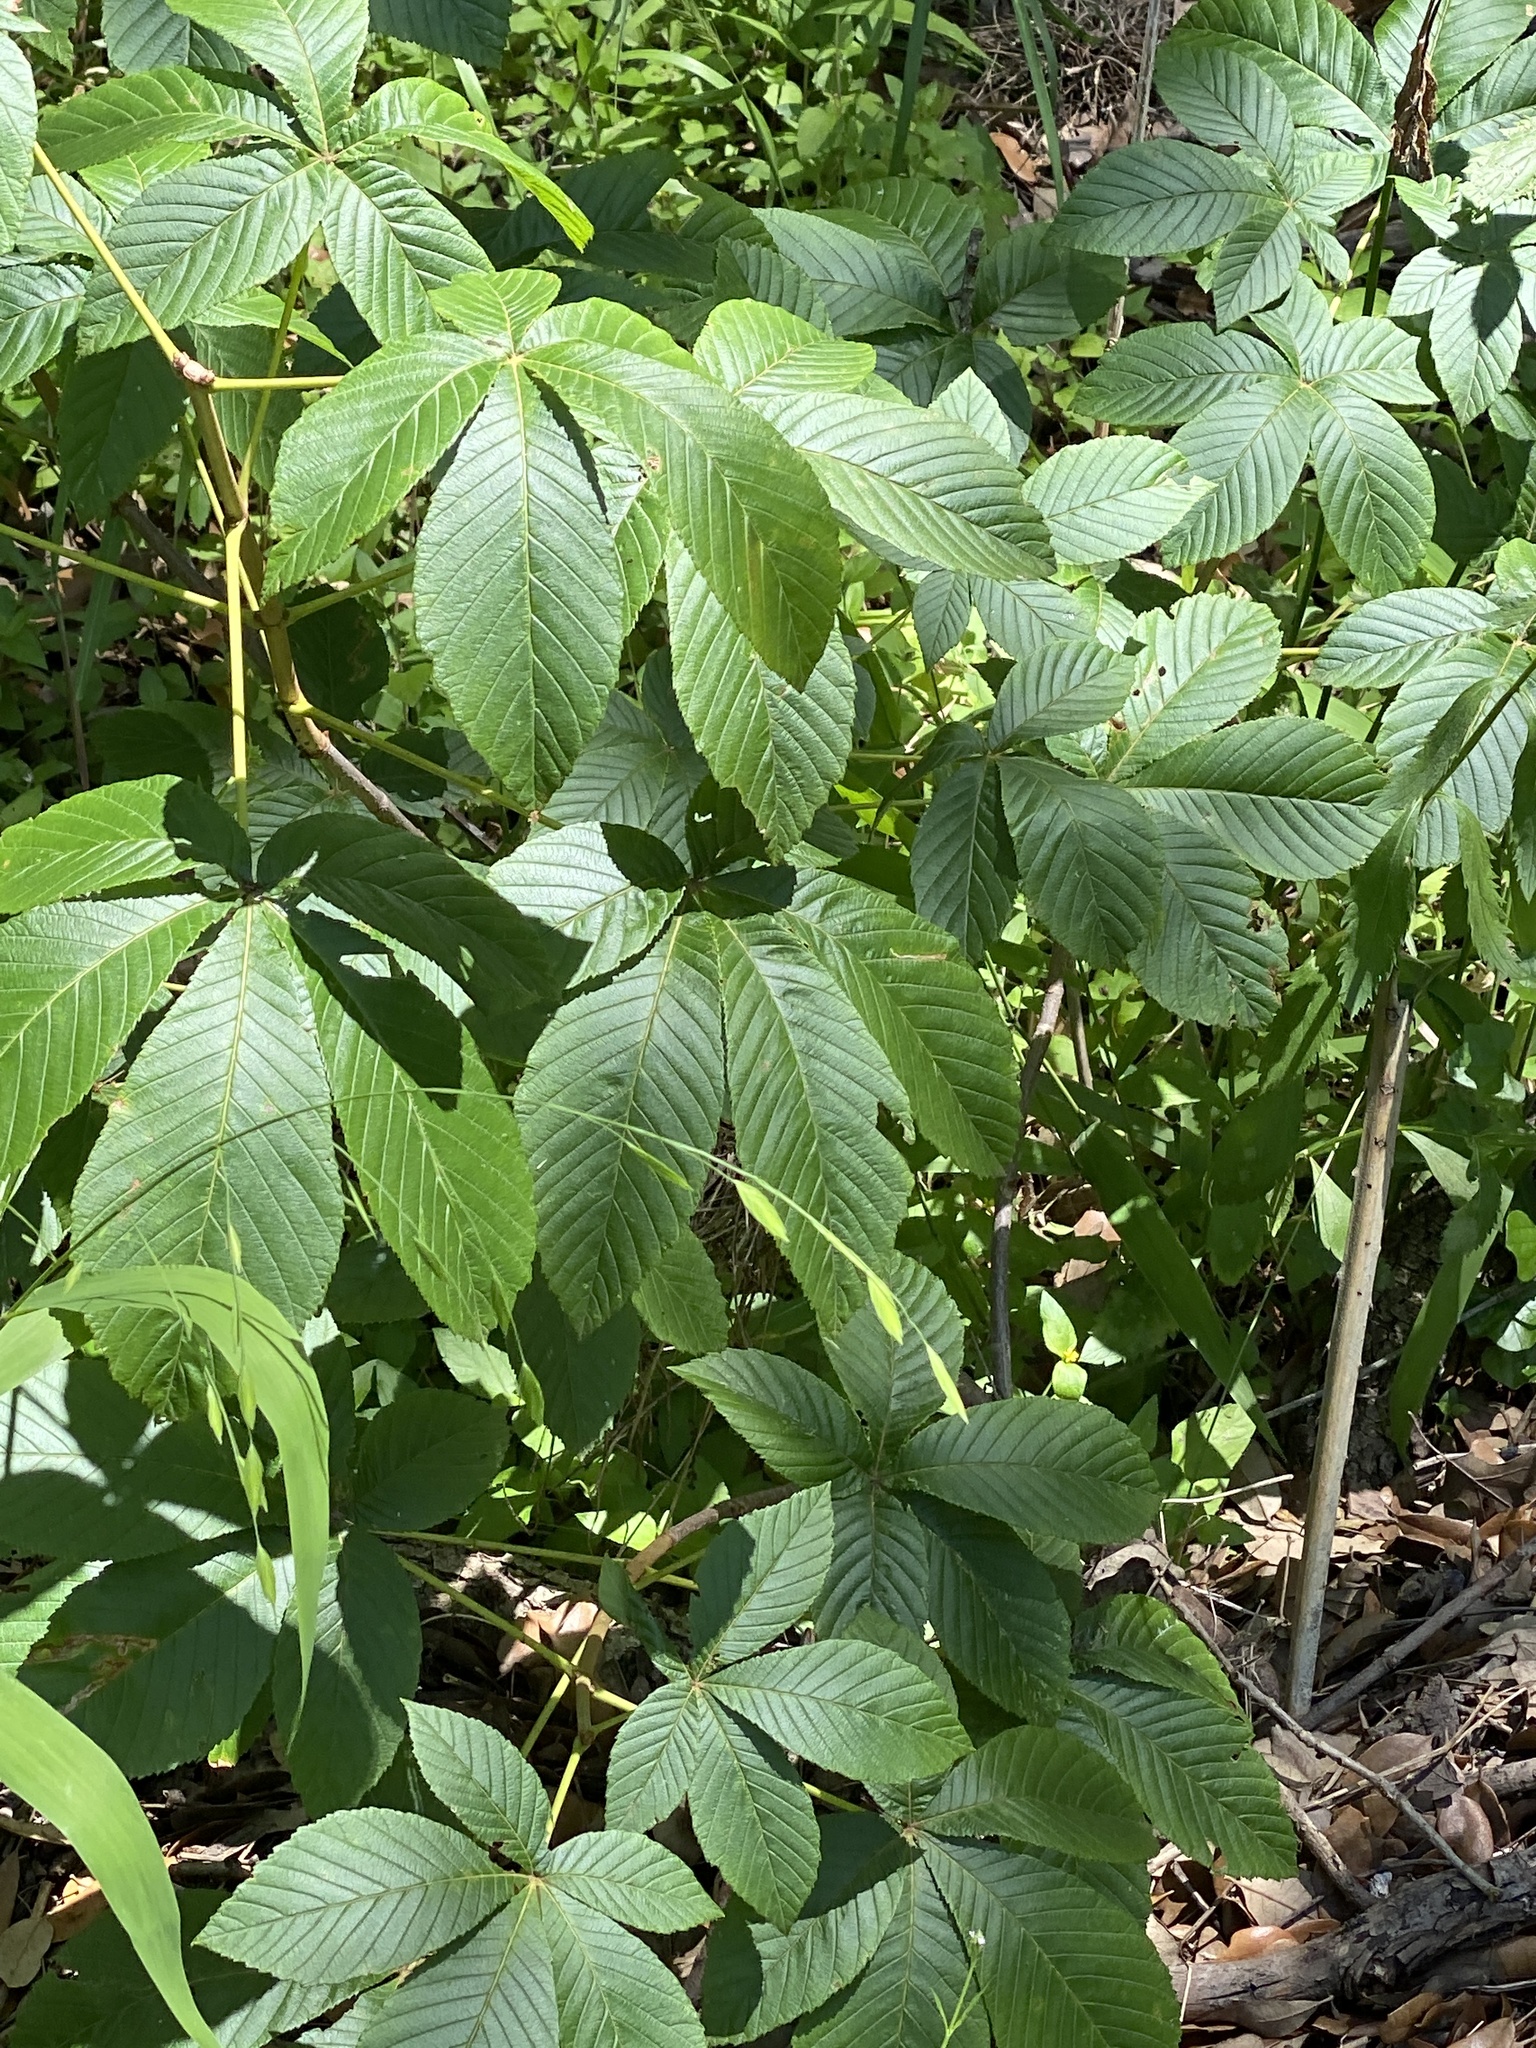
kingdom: Plantae
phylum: Tracheophyta
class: Magnoliopsida
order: Sapindales
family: Sapindaceae
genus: Aesculus
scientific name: Aesculus pavia
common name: Red buckeye
